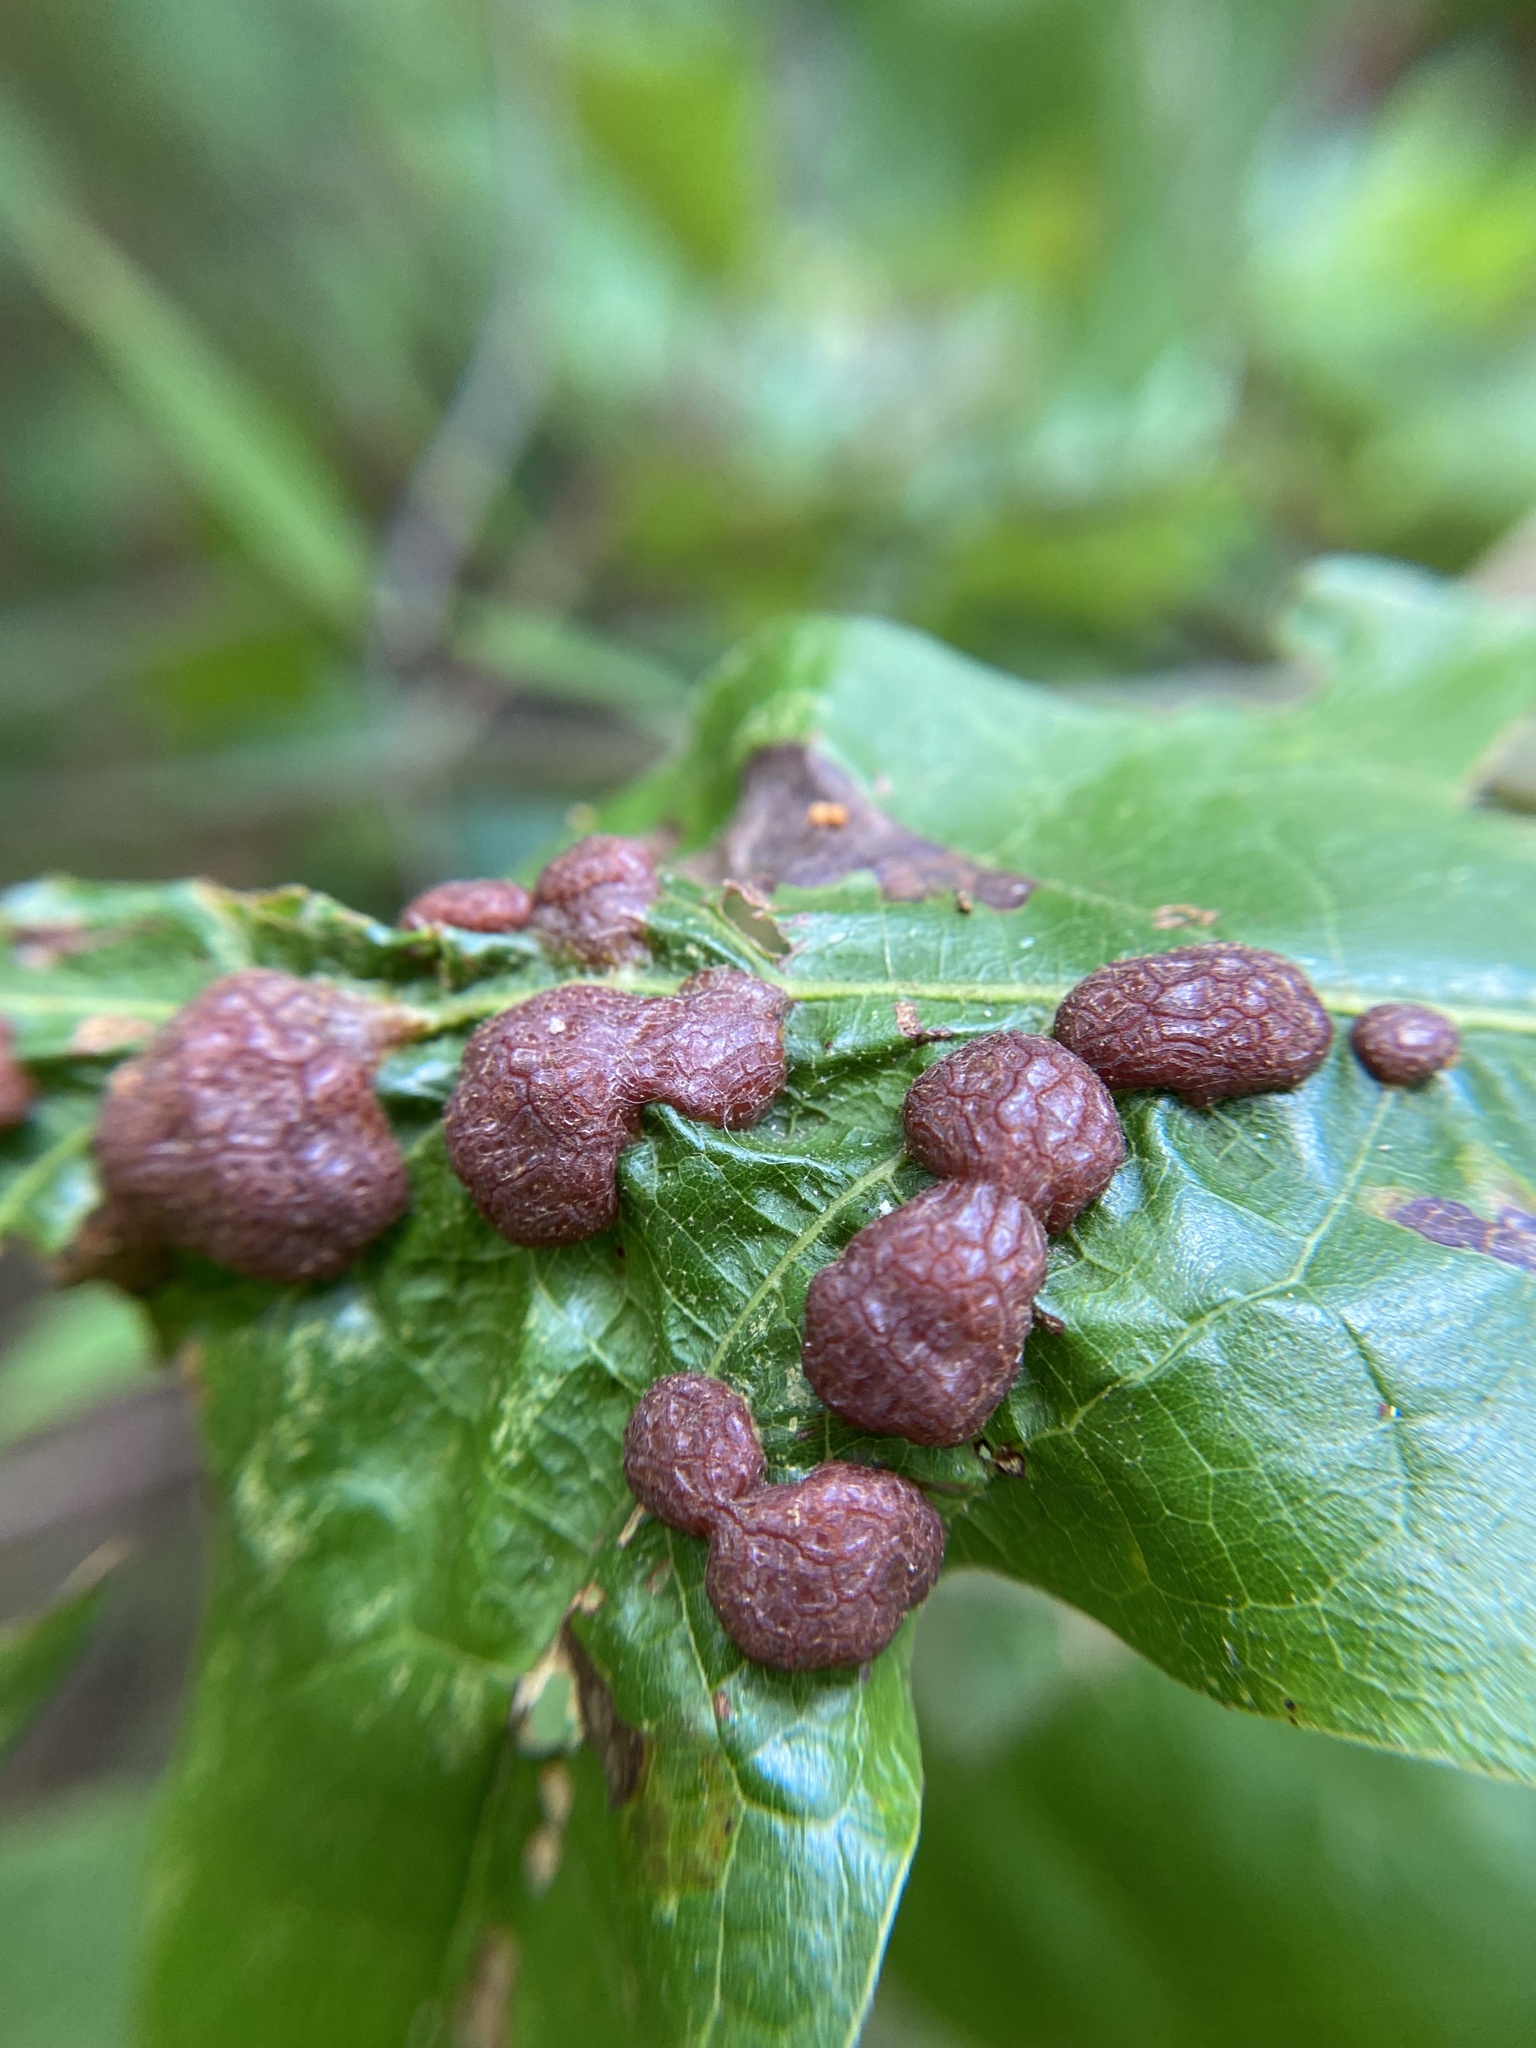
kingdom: Animalia
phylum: Arthropoda
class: Insecta
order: Diptera
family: Cecidomyiidae
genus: Polystepha
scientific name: Polystepha pilulae
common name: Oak leaf gall midge
